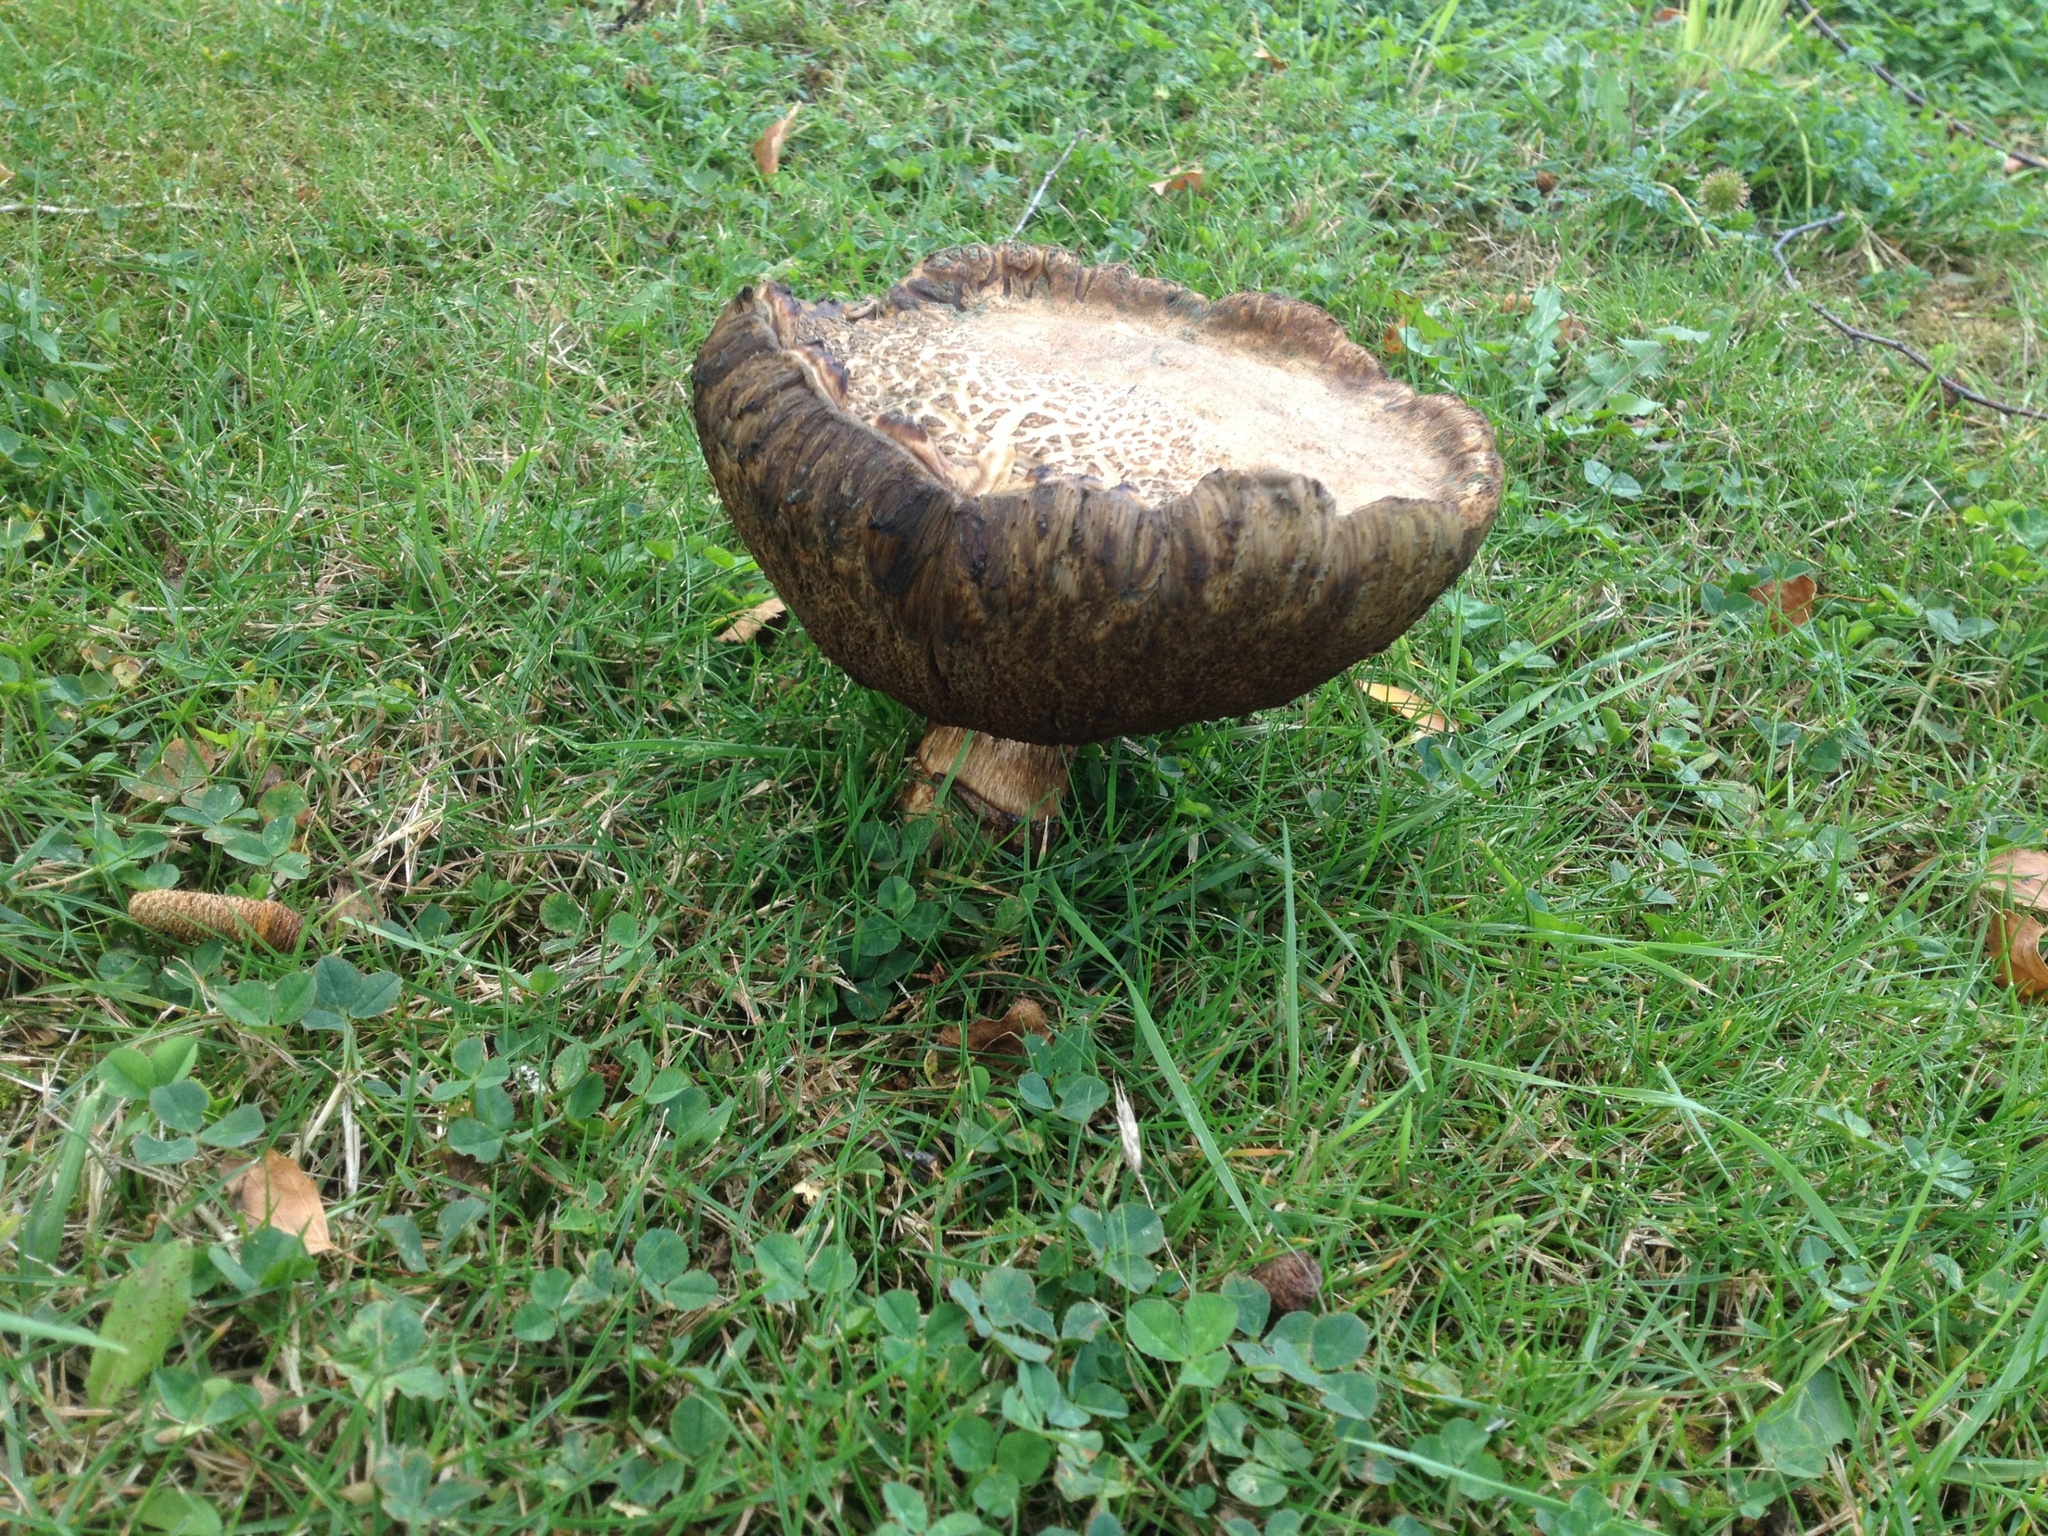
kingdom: Fungi
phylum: Basidiomycota
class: Agaricomycetes
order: Boletales
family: Boletaceae
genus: Leccinum
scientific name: Leccinum scabrum
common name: Blushing bolete
